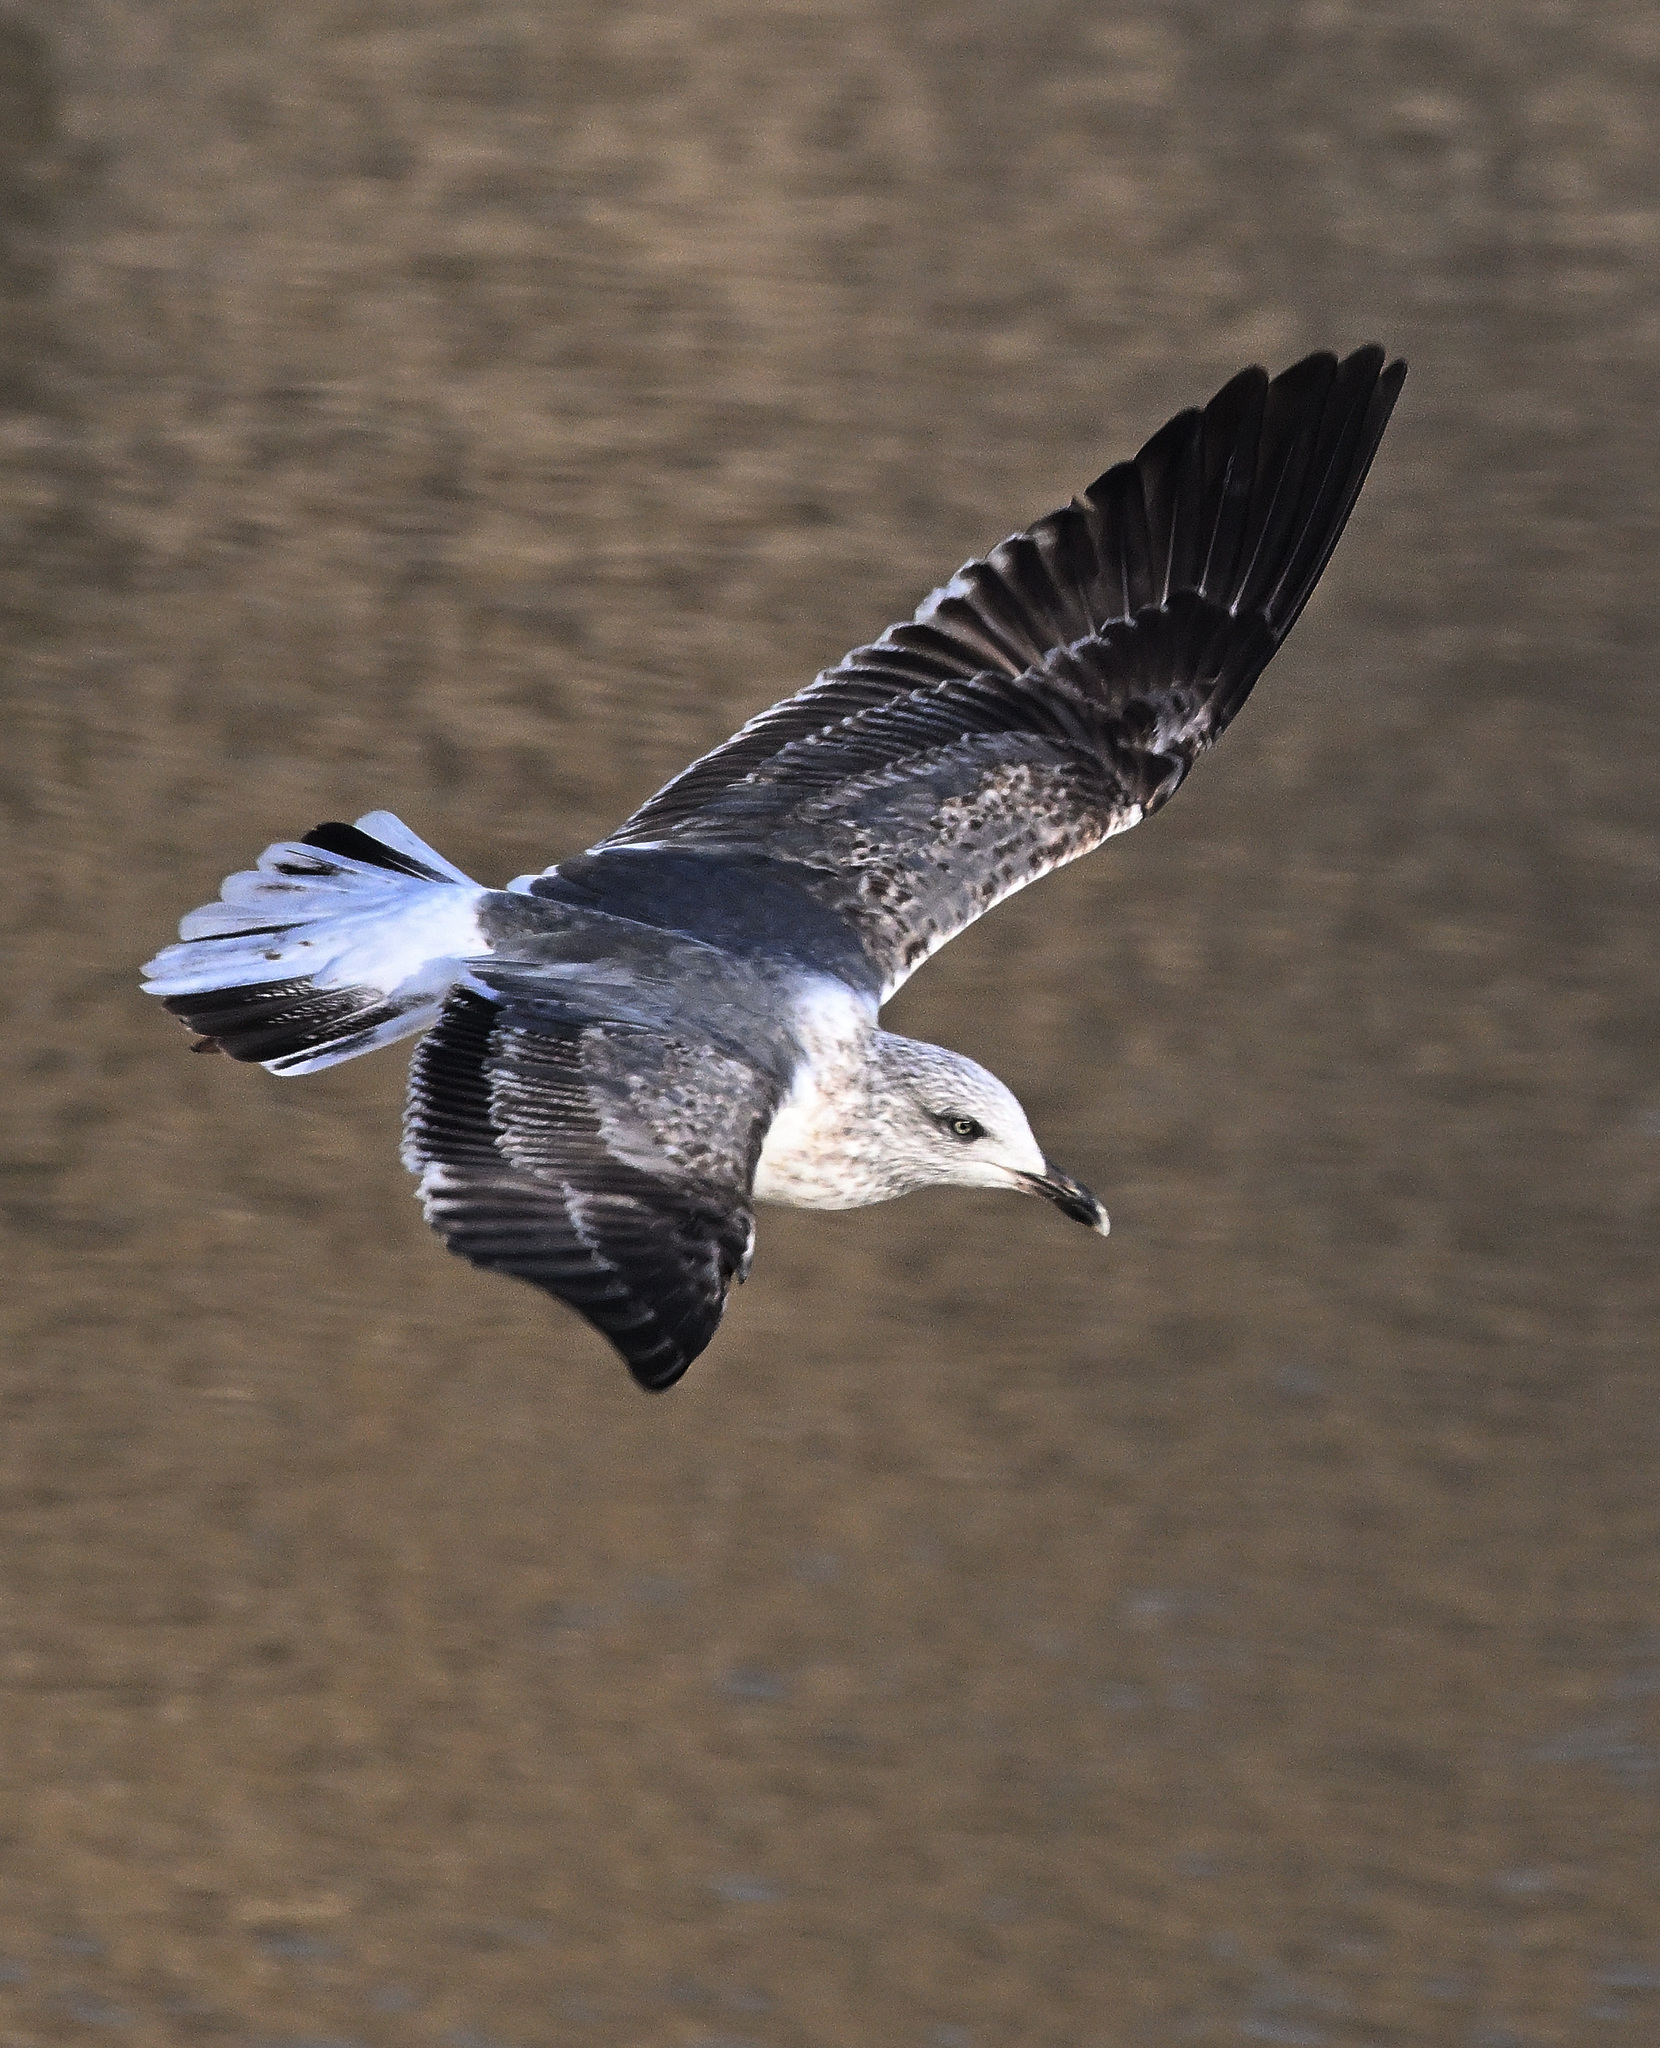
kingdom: Animalia
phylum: Chordata
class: Aves
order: Charadriiformes
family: Laridae
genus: Larus
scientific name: Larus fuscus
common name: Lesser black-backed gull
